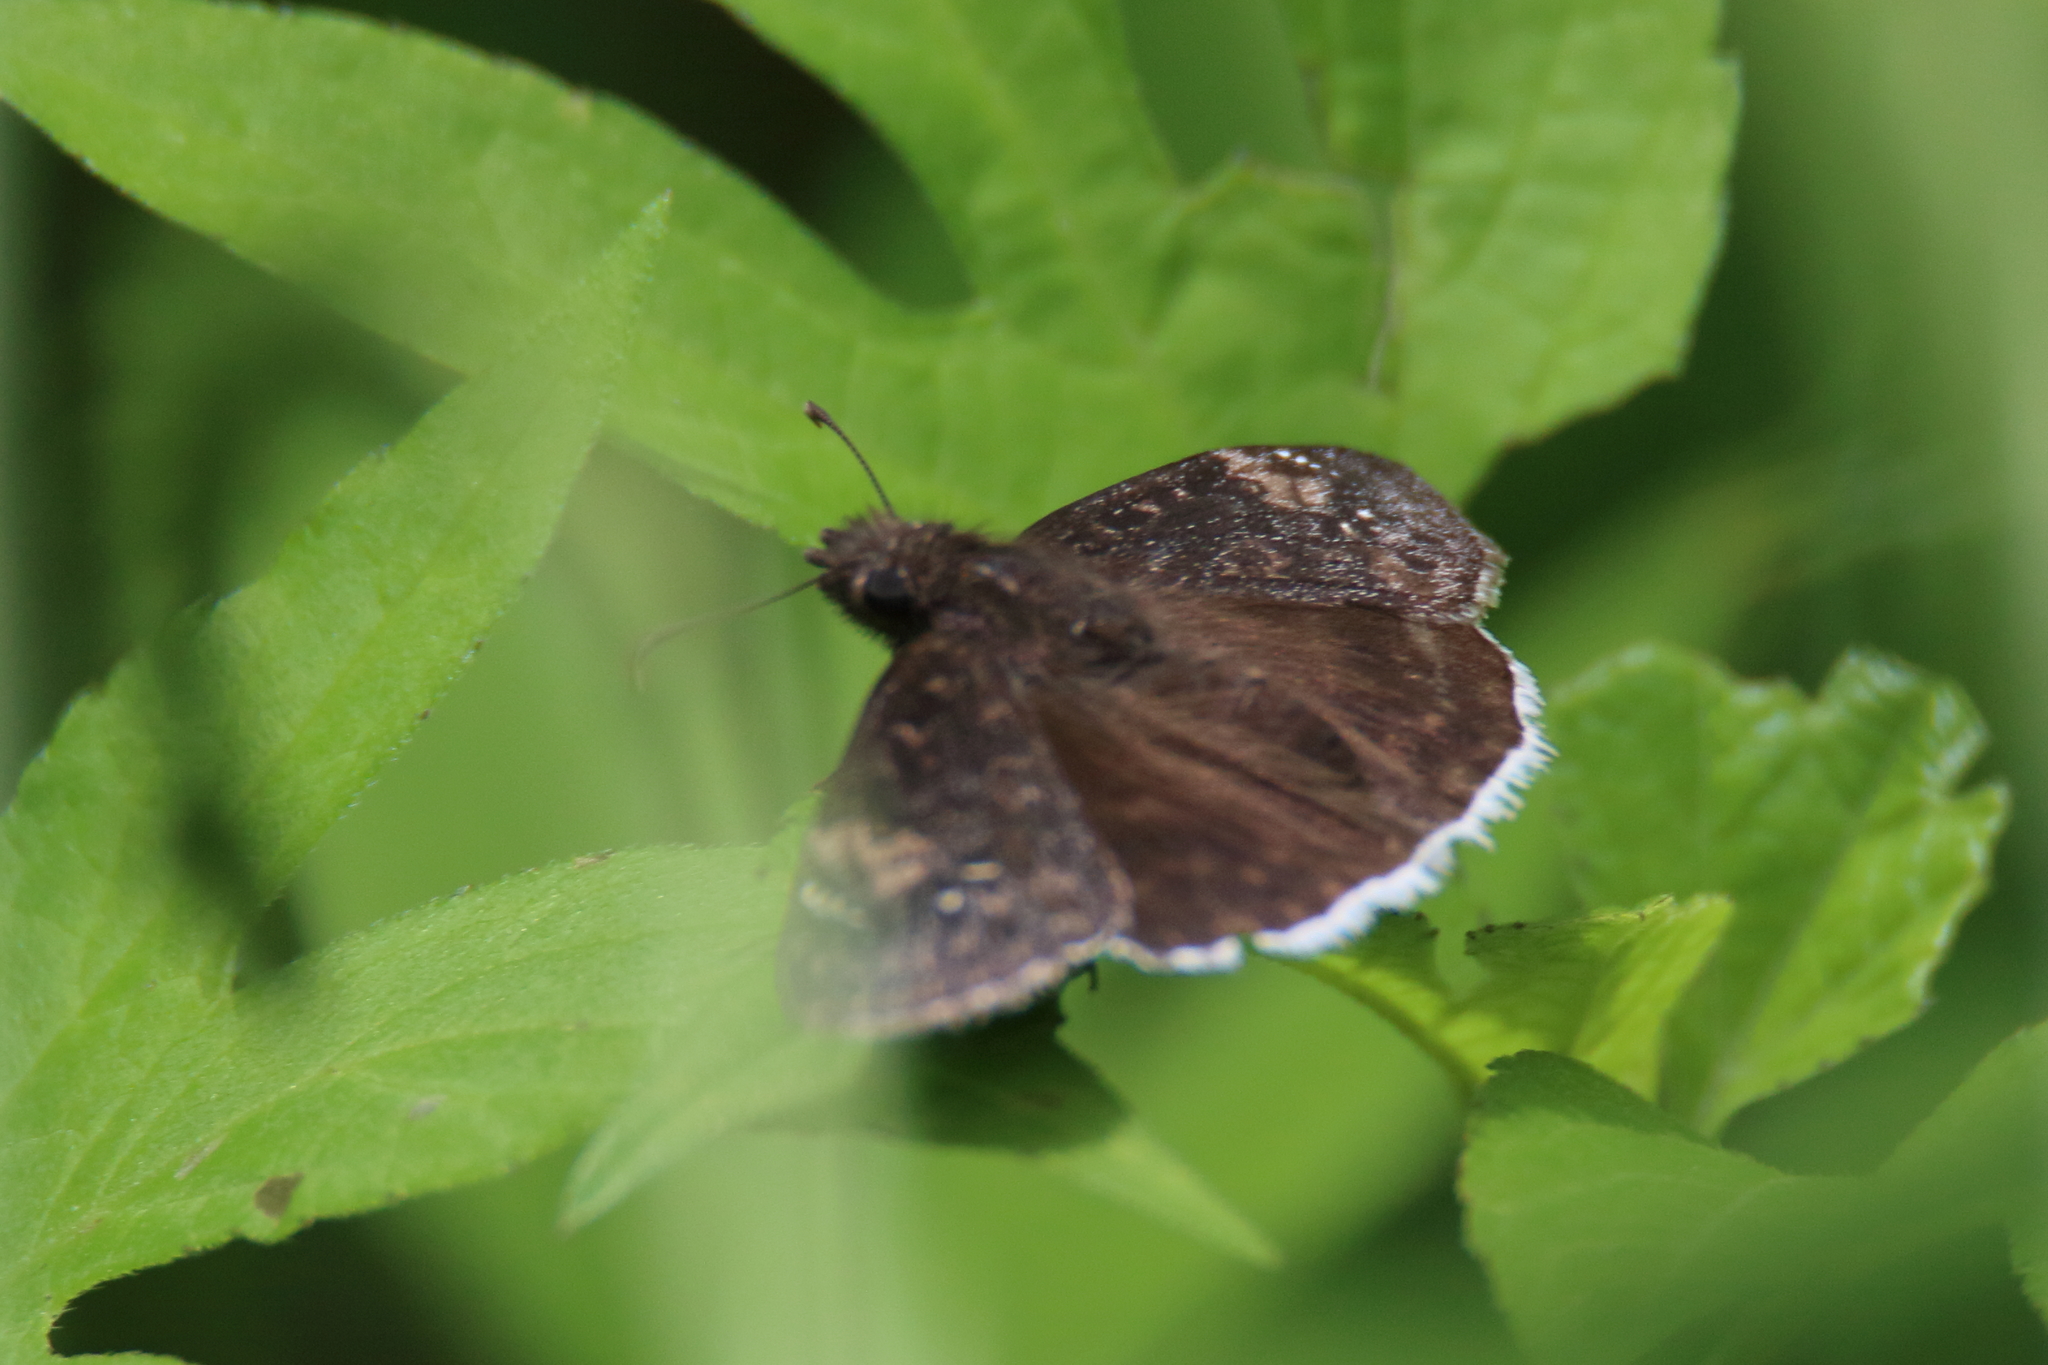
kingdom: Animalia
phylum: Arthropoda
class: Insecta
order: Lepidoptera
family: Hesperiidae
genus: Erynnis
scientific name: Erynnis funeralis
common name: Funereal duskywing
